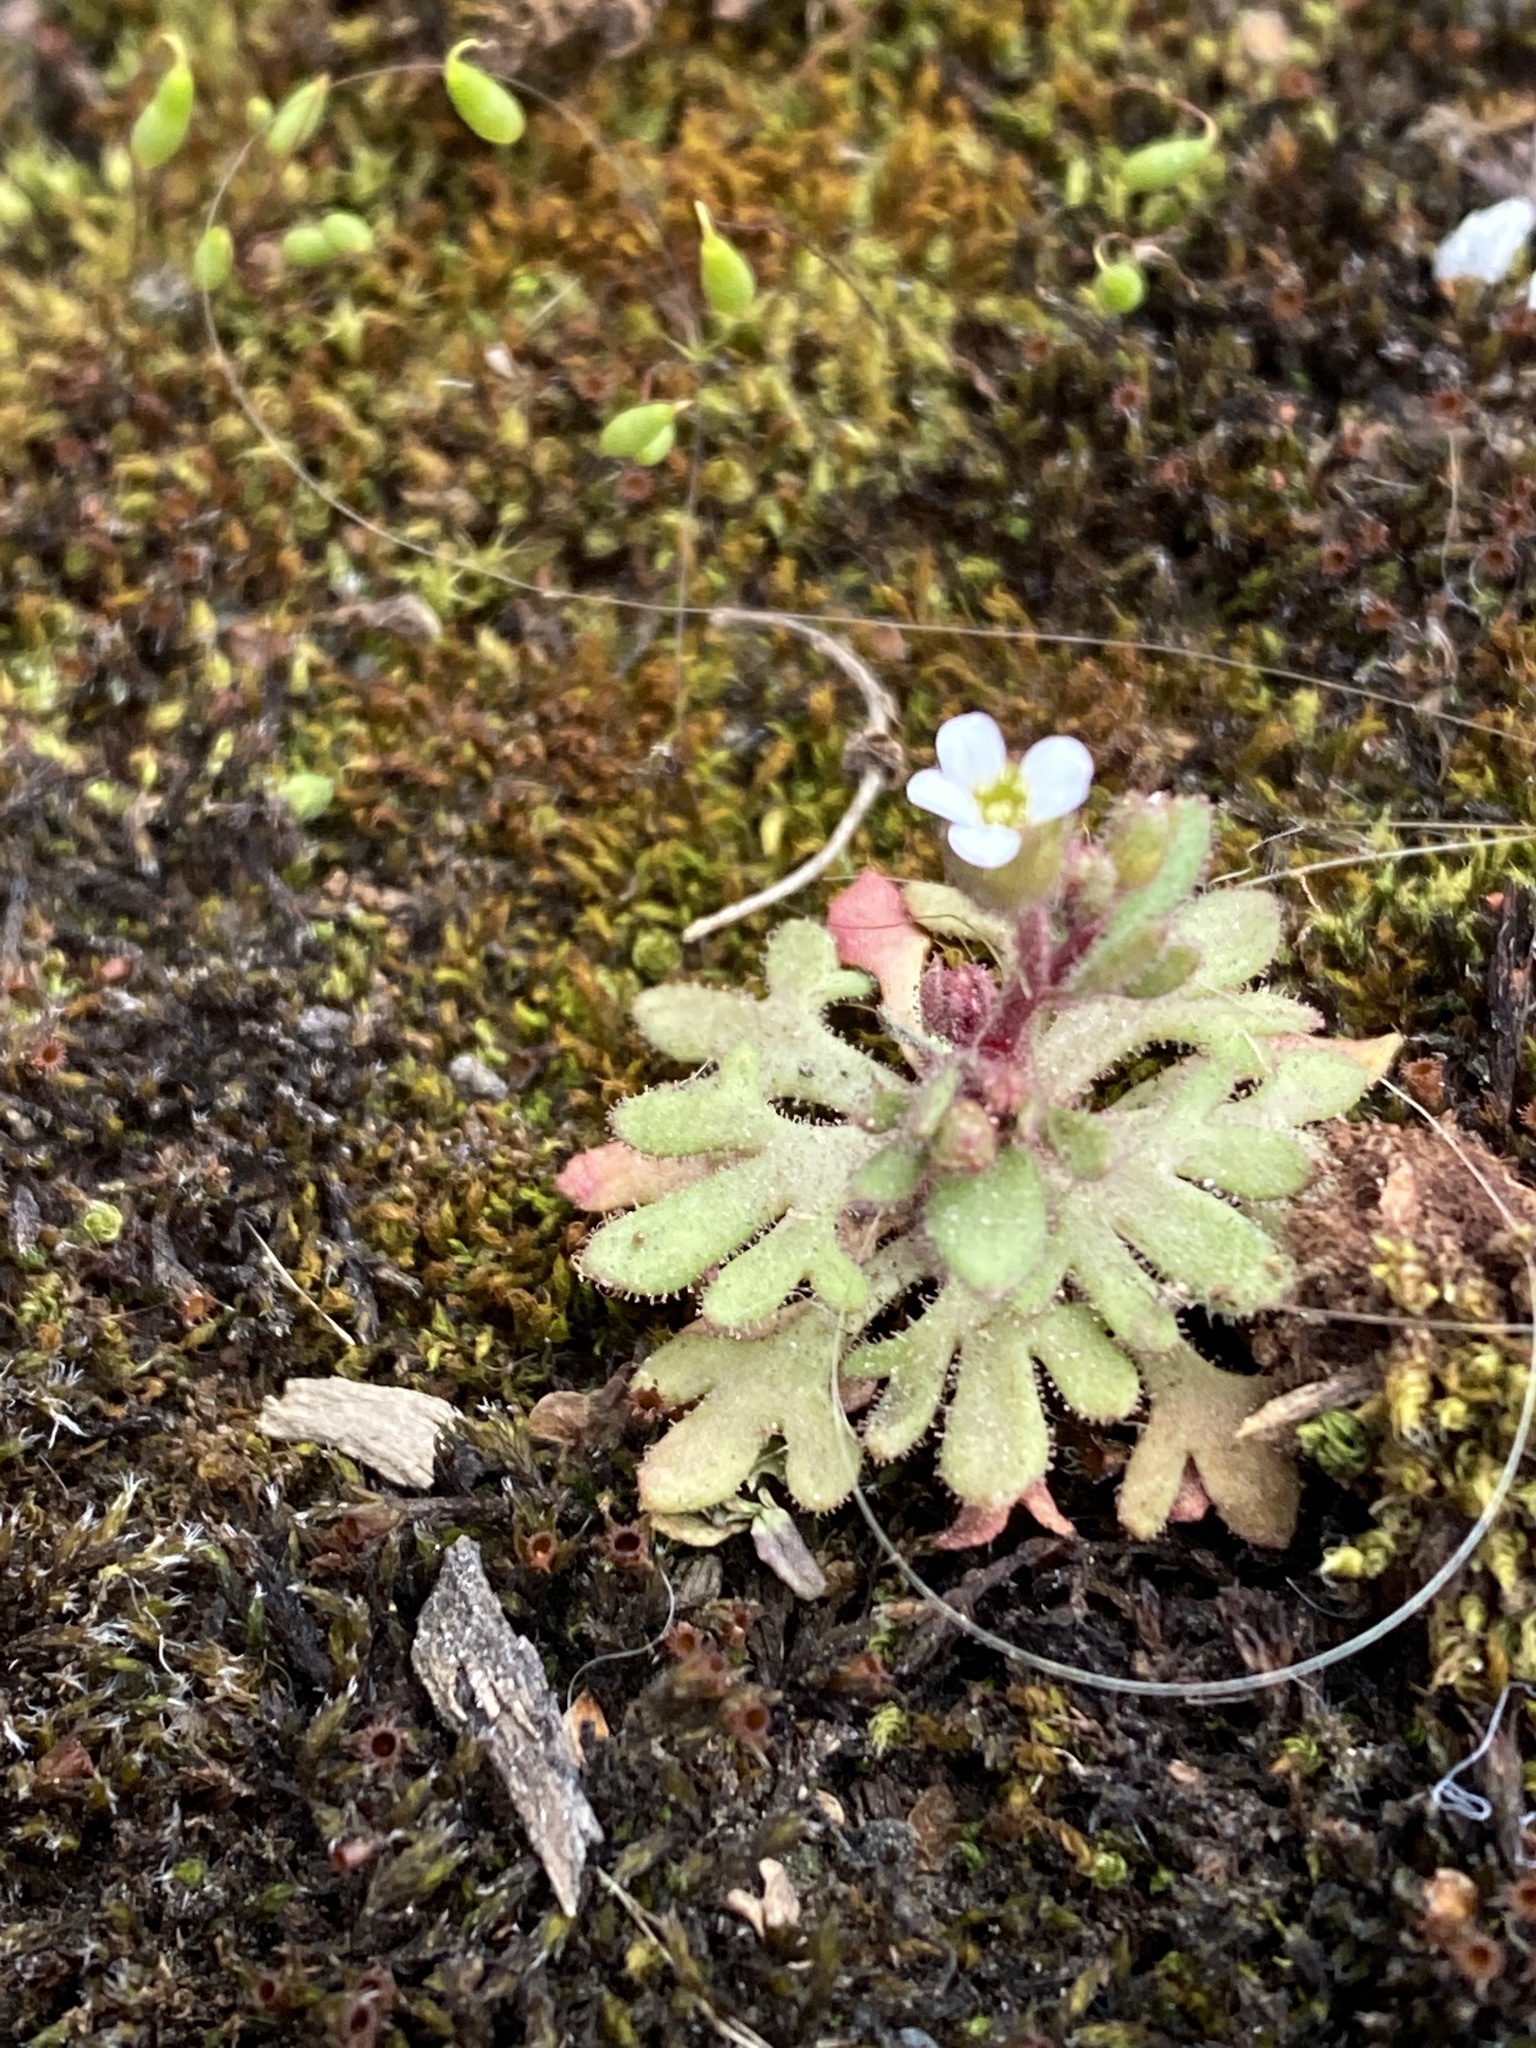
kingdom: Plantae
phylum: Tracheophyta
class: Magnoliopsida
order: Saxifragales
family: Saxifragaceae
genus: Saxifraga
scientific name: Saxifraga tridactylites
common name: Rue-leaved saxifrage
